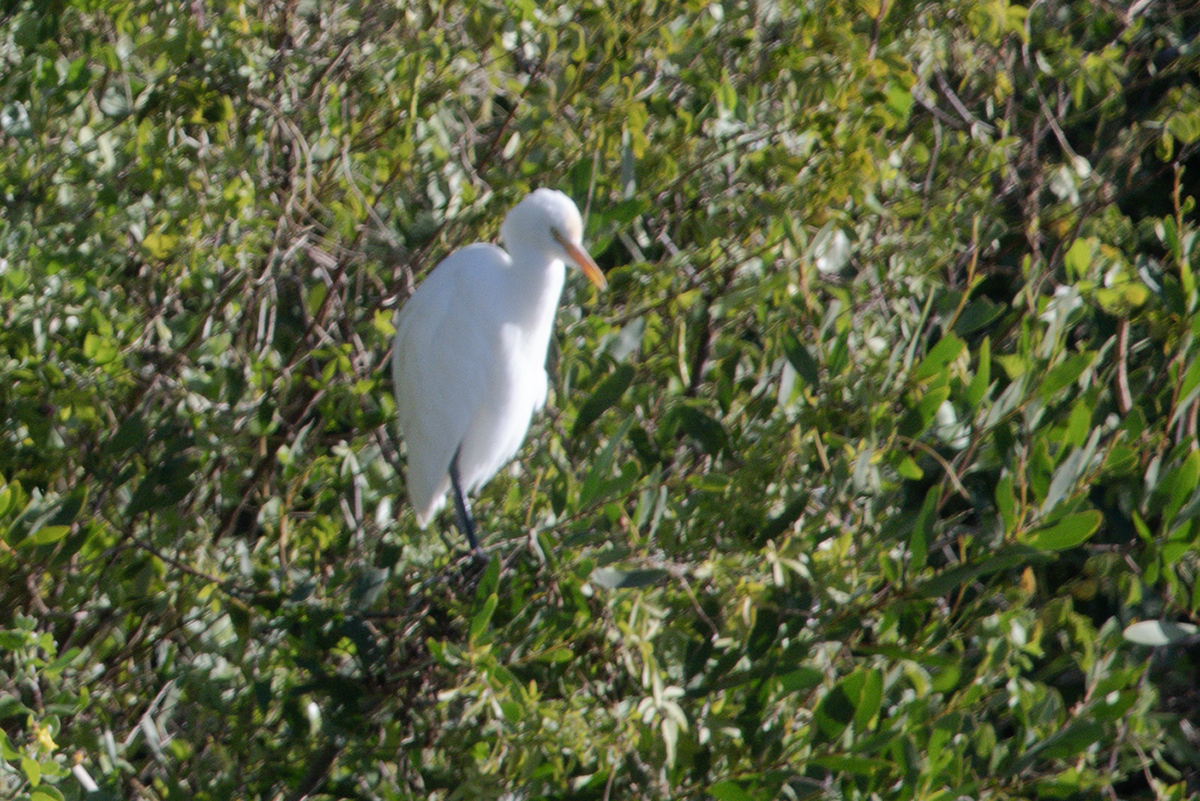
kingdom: Animalia
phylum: Chordata
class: Aves
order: Pelecaniformes
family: Ardeidae
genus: Bubulcus
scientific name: Bubulcus coromandus
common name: Eastern cattle egret
